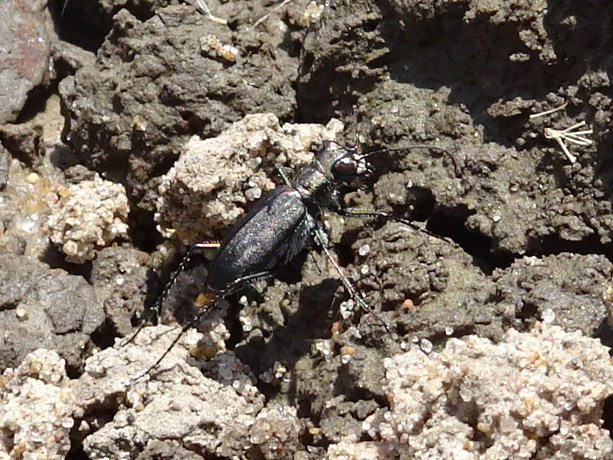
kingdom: Animalia
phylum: Arthropoda
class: Insecta
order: Coleoptera
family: Carabidae
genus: Cicindela
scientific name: Cicindela punctulata
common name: Punctured tiger beetle
